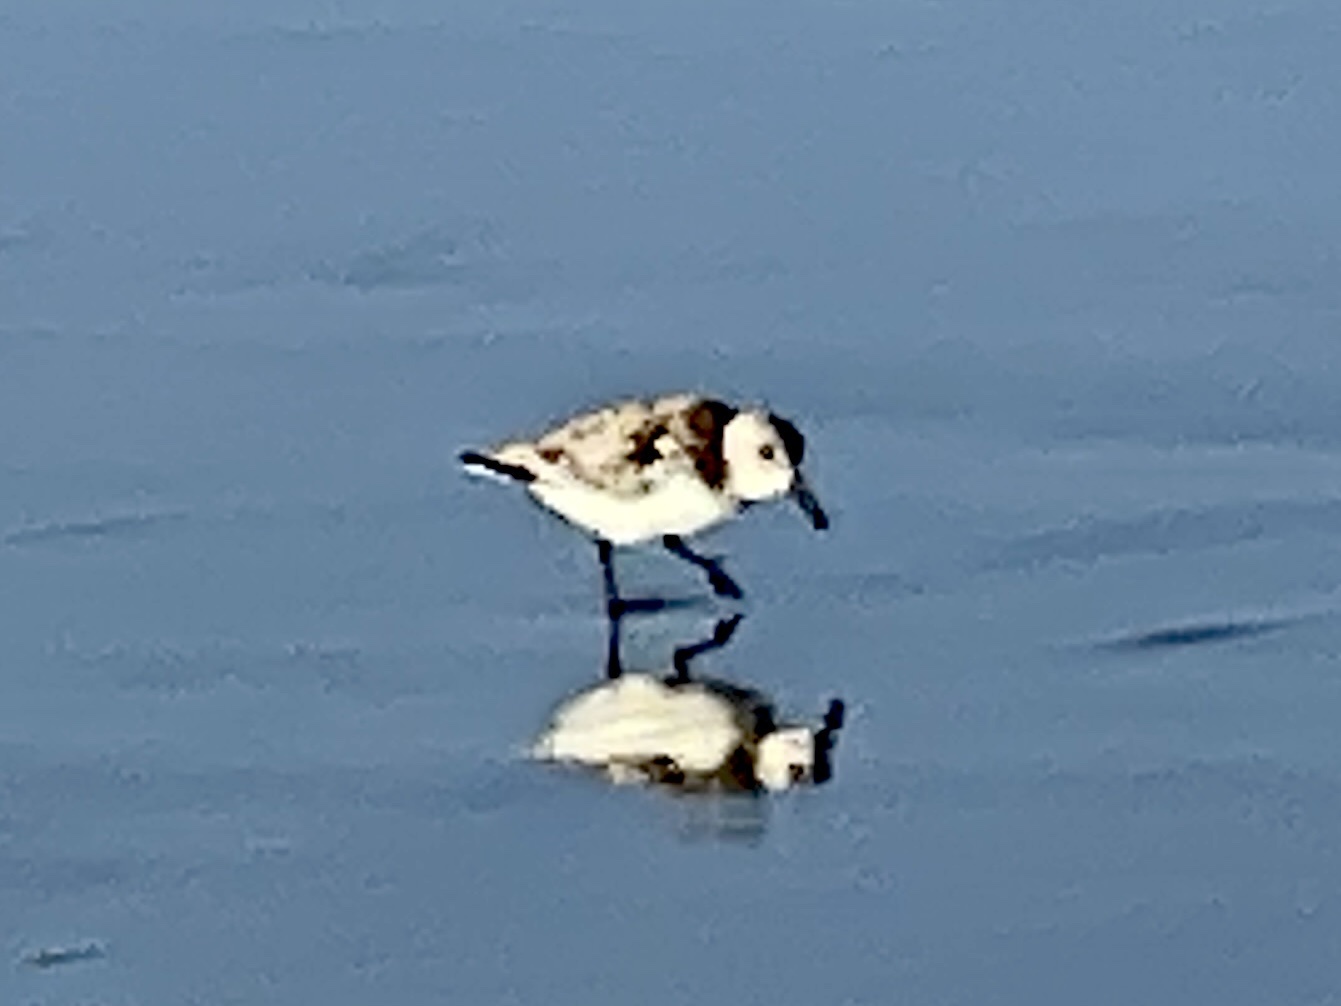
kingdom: Animalia
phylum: Chordata
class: Aves
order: Charadriiformes
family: Scolopacidae
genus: Calidris
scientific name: Calidris alba
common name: Sanderling
